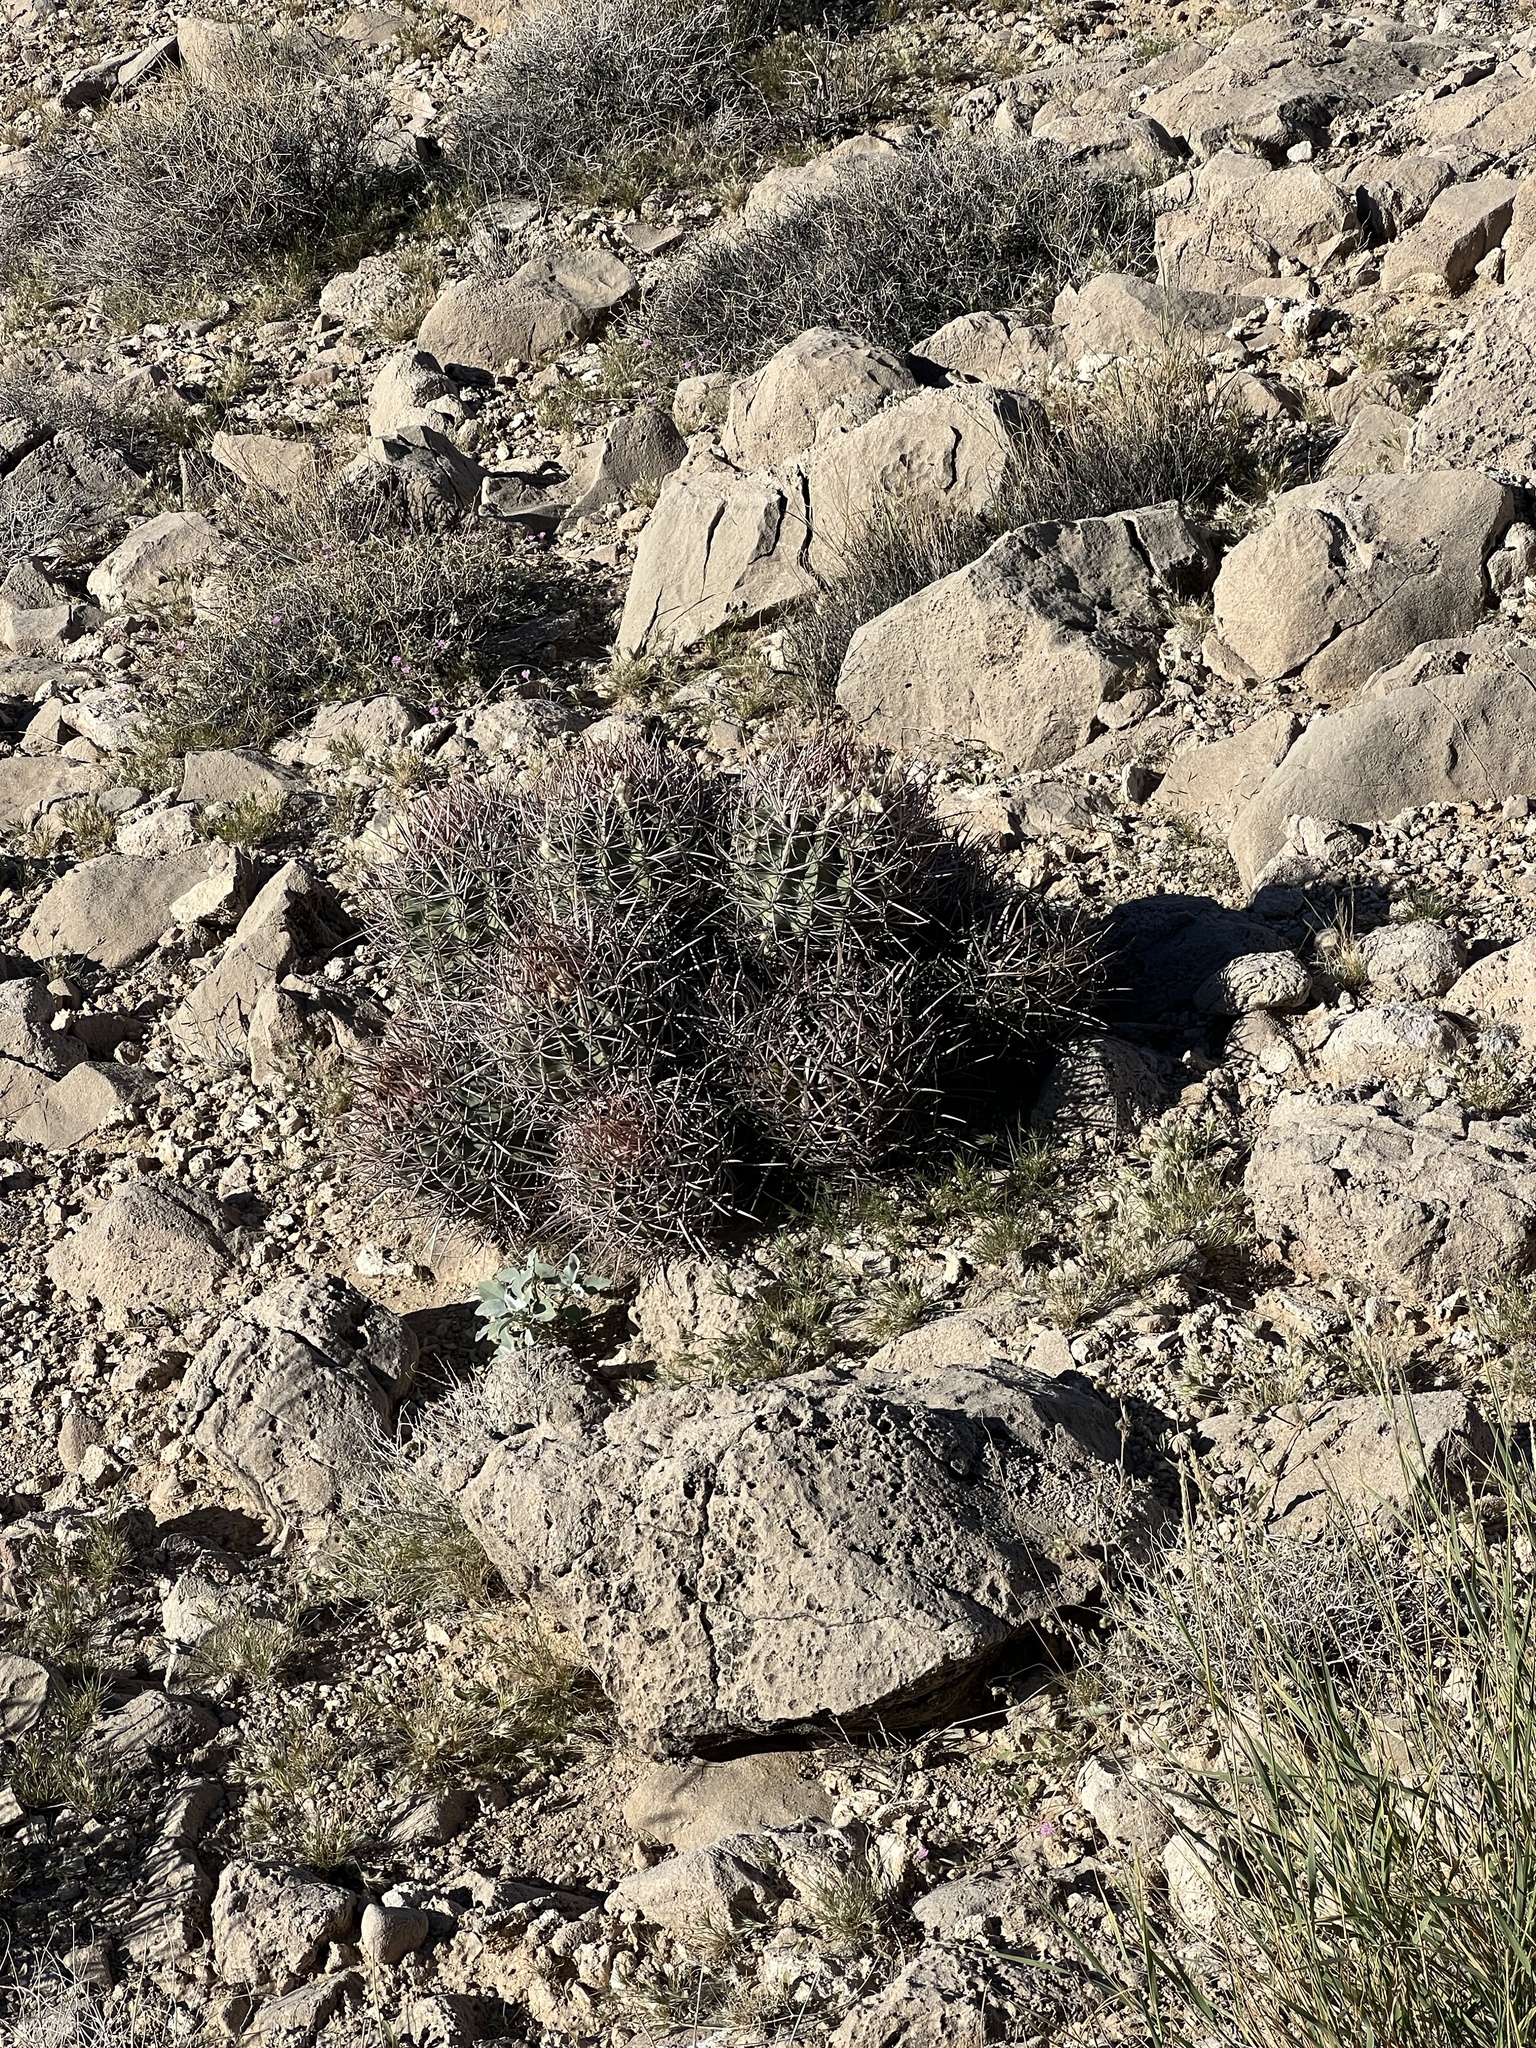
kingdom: Plantae
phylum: Tracheophyta
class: Magnoliopsida
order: Caryophyllales
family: Cactaceae
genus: Echinocactus
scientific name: Echinocactus polycephalus
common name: Cottontop cactus
